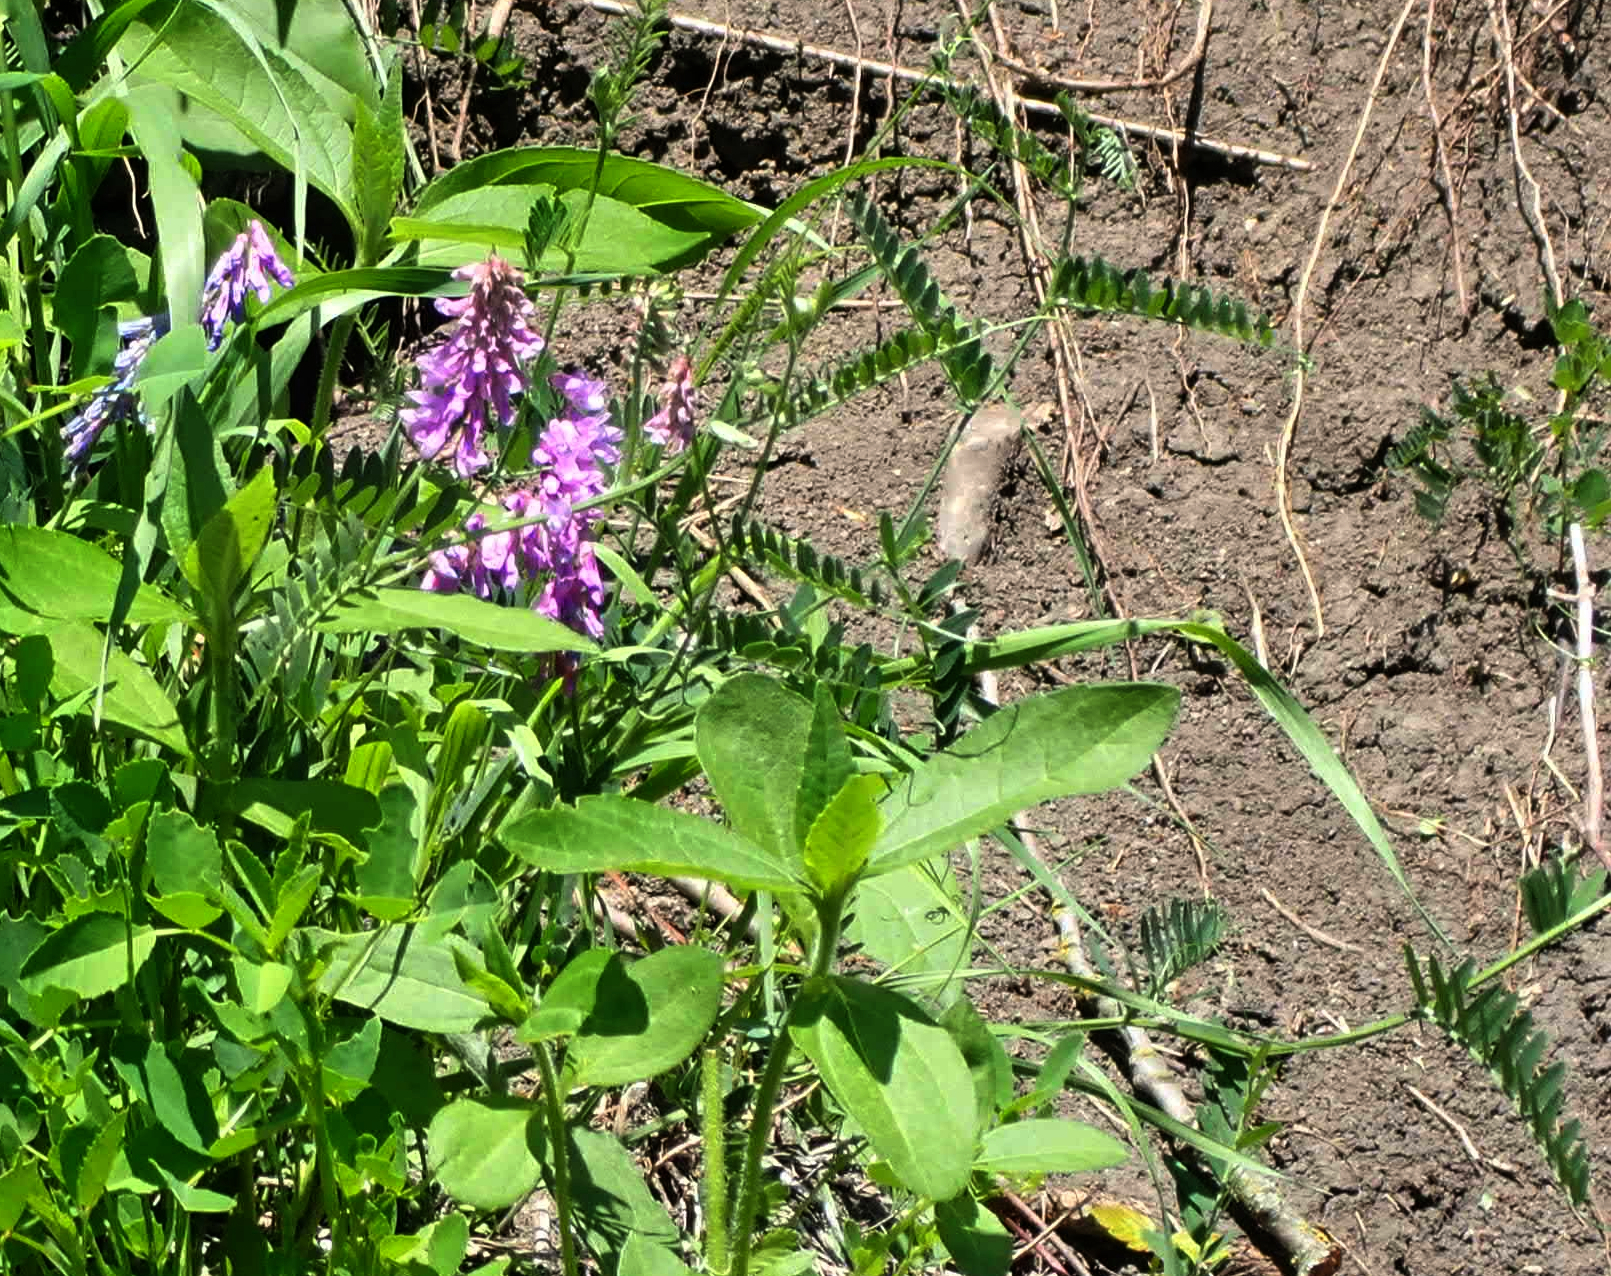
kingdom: Plantae
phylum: Tracheophyta
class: Magnoliopsida
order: Fabales
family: Fabaceae
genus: Vicia
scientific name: Vicia cracca
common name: Bird vetch
